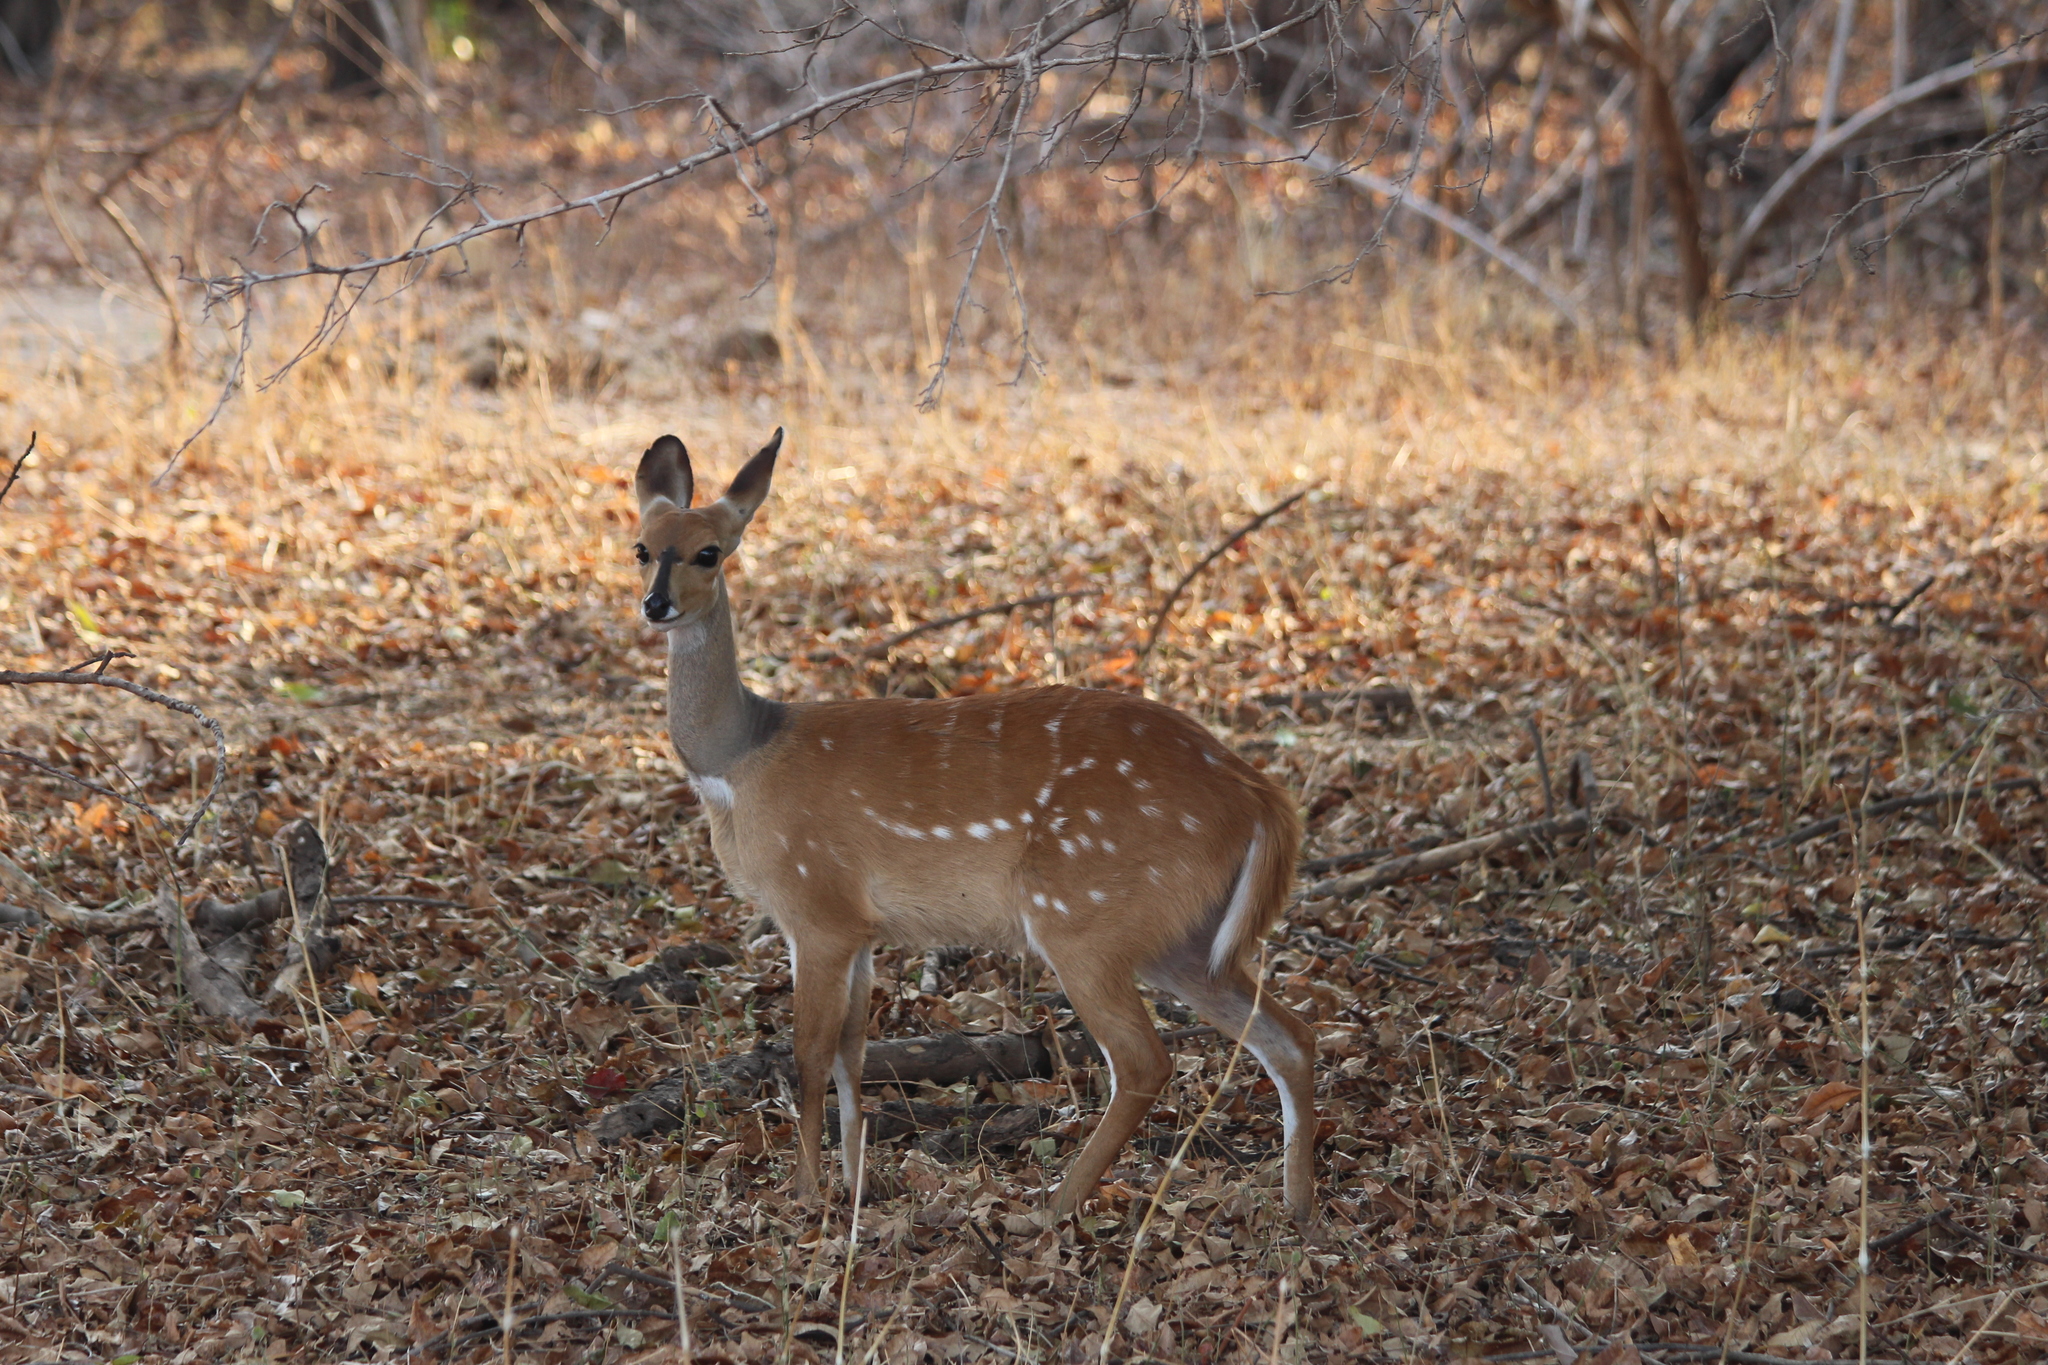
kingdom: Animalia
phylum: Chordata
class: Mammalia
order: Artiodactyla
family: Bovidae
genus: Tragelaphus
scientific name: Tragelaphus scriptus
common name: Bushbuck
